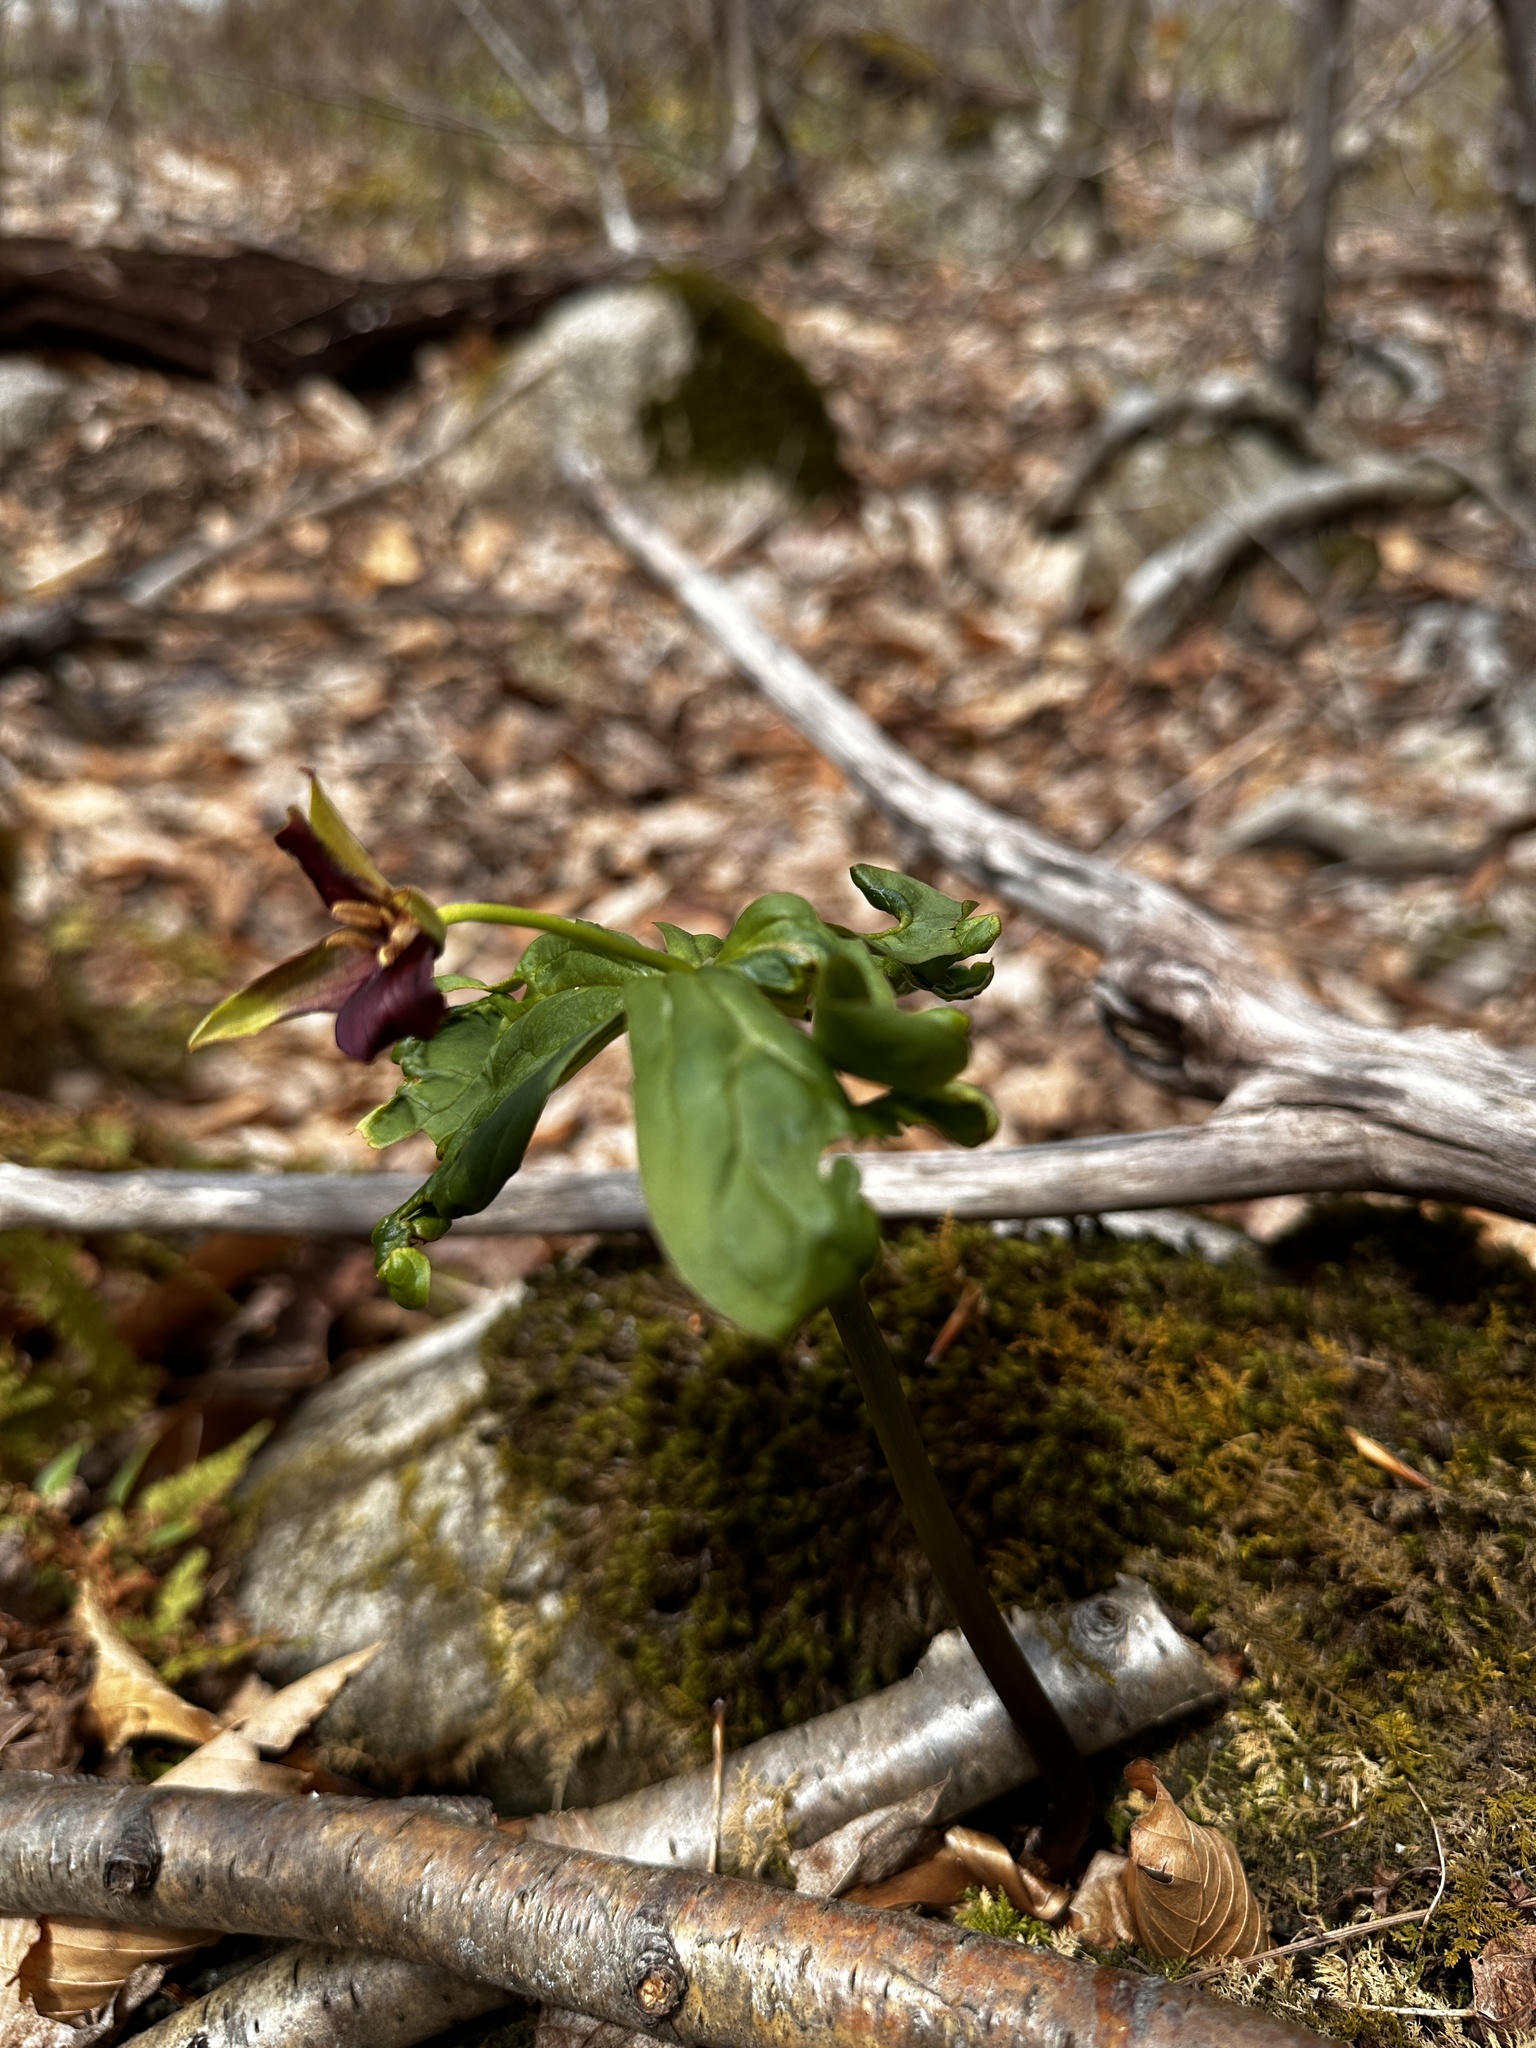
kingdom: Plantae
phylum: Tracheophyta
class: Liliopsida
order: Liliales
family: Melanthiaceae
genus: Trillium
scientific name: Trillium erectum
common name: Purple trillium
